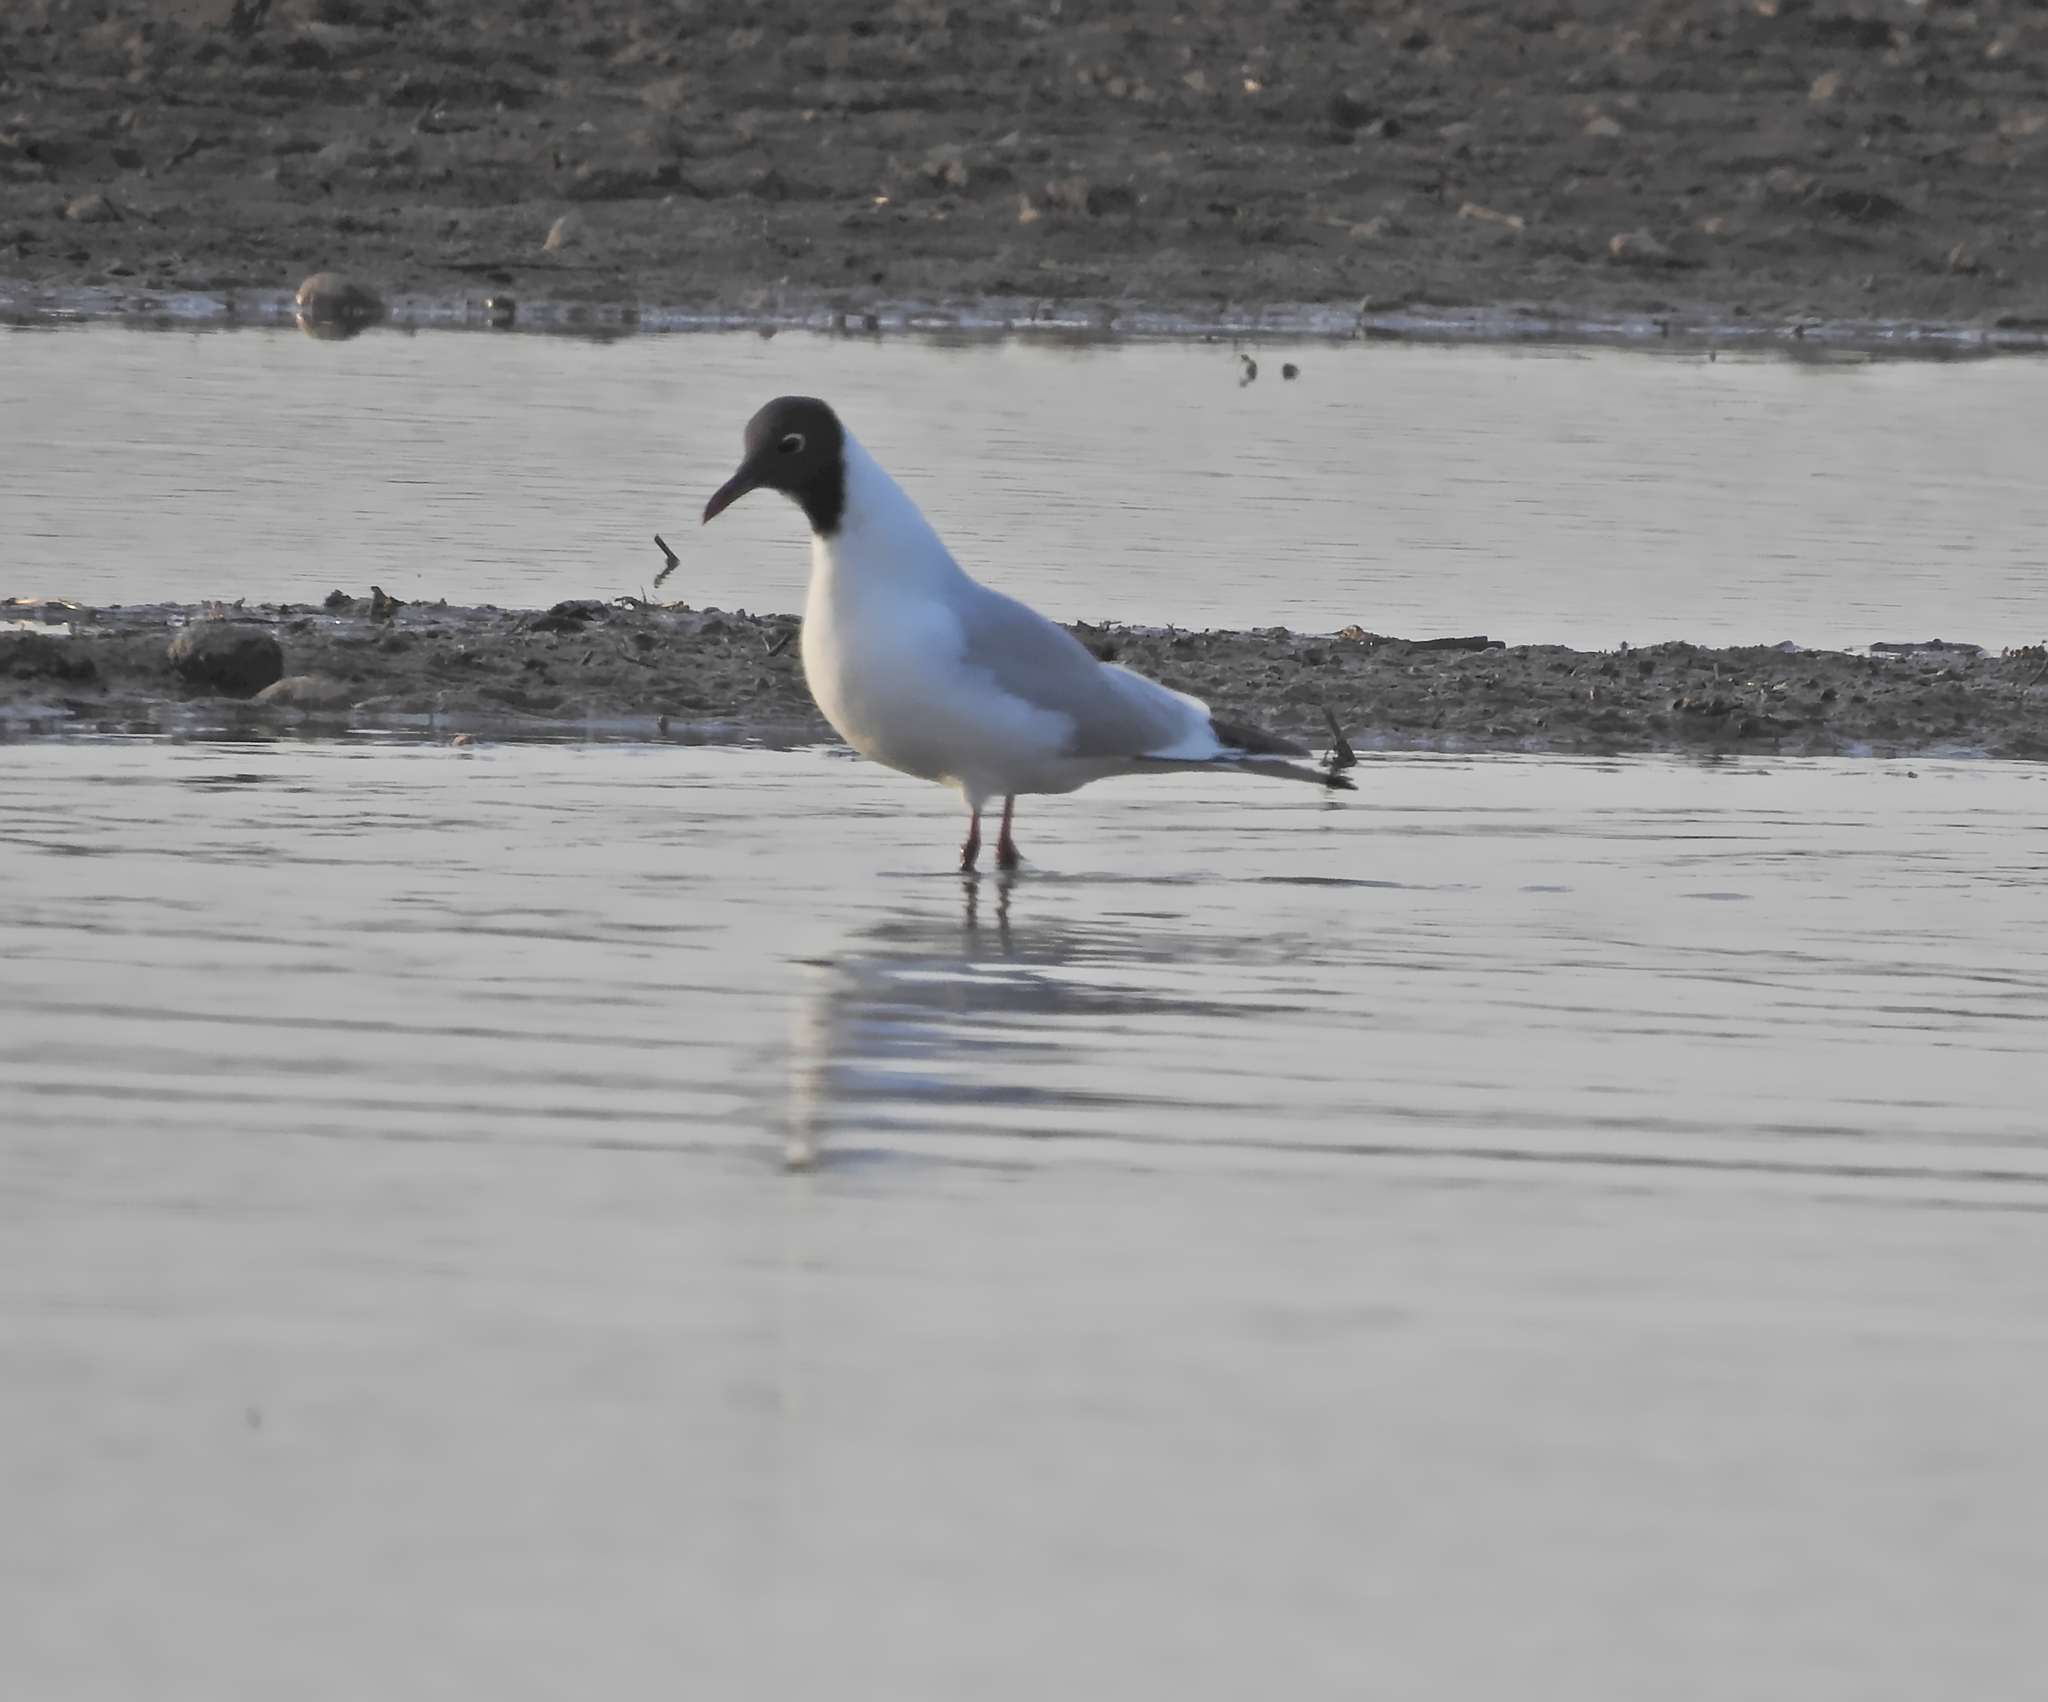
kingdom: Animalia
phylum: Chordata
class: Aves
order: Charadriiformes
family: Laridae
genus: Chroicocephalus
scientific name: Chroicocephalus ridibundus
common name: Black-headed gull
